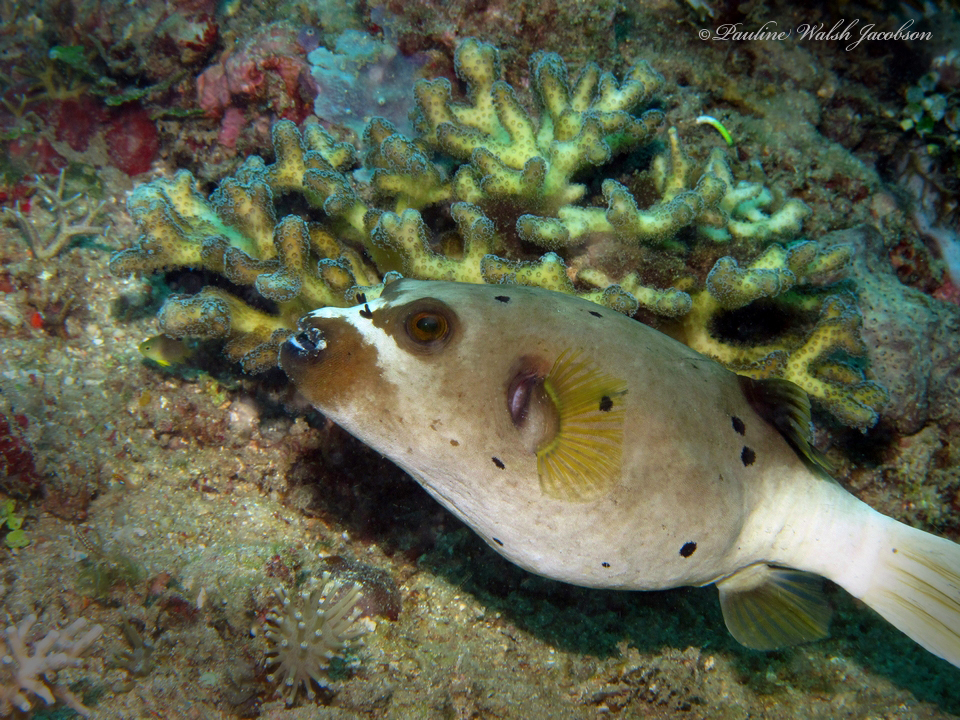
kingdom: Animalia
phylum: Chordata
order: Tetraodontiformes
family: Tetraodontidae
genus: Arothron
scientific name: Arothron nigropunctatus
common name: Black spotted blow fish
